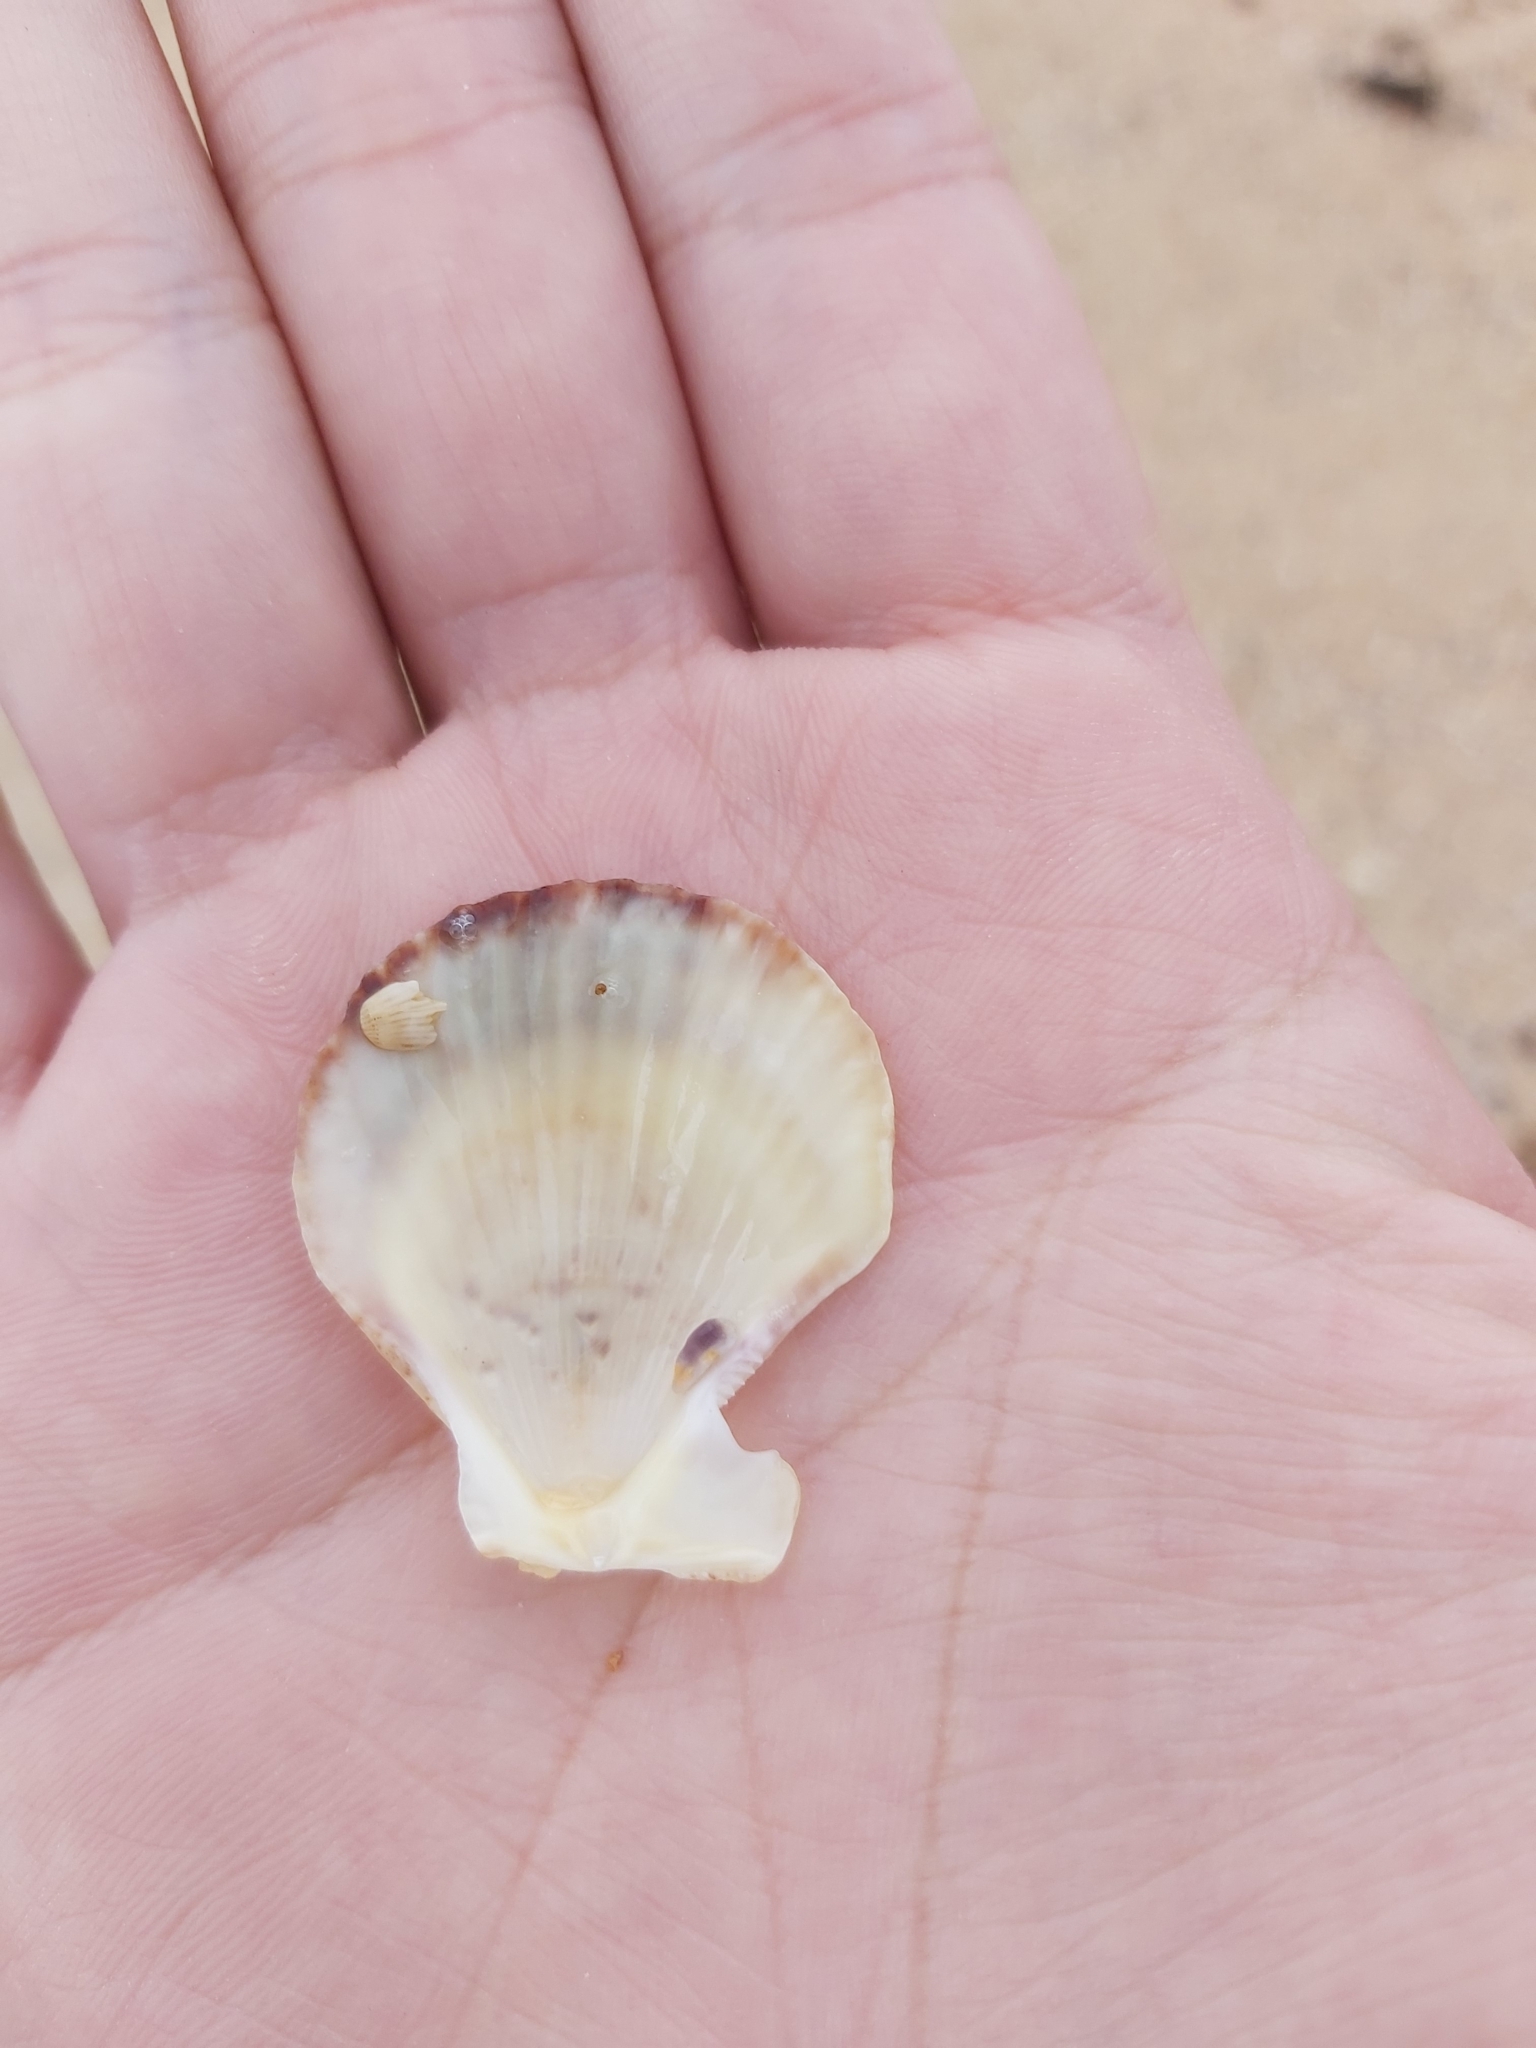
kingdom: Animalia
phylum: Mollusca
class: Bivalvia
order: Pectinida
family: Pectinidae
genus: Scaeochlamys
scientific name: Scaeochlamys livida
